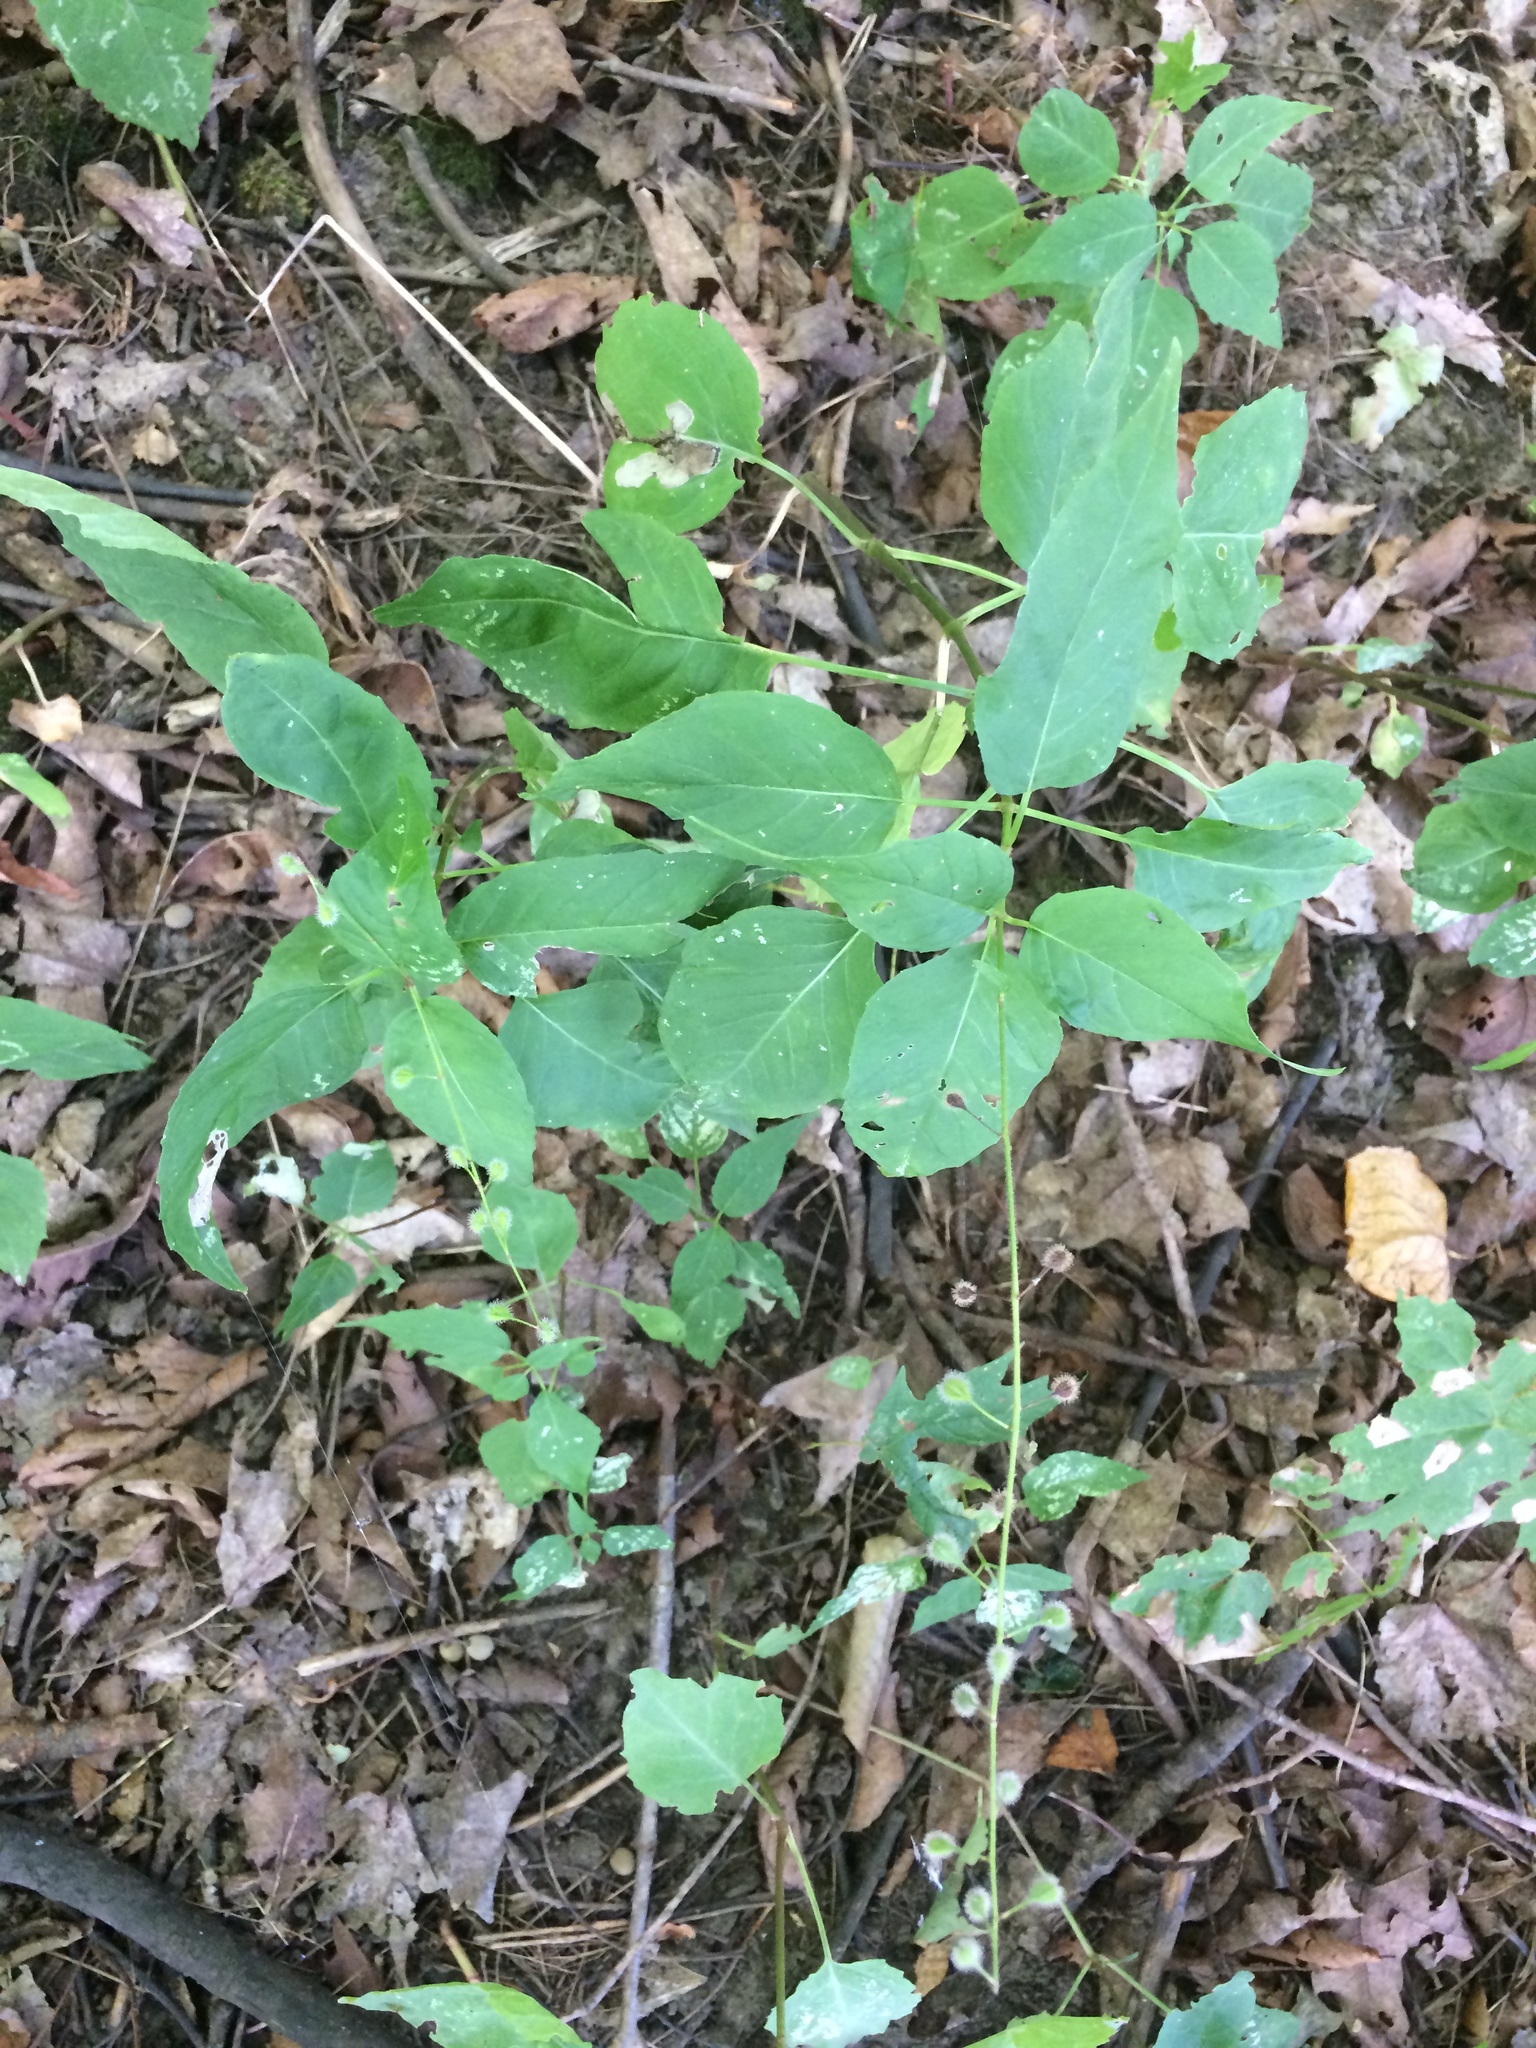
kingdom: Plantae
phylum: Tracheophyta
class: Magnoliopsida
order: Myrtales
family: Onagraceae
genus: Circaea
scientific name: Circaea canadensis
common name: Broad-leaved enchanter's nightshade
